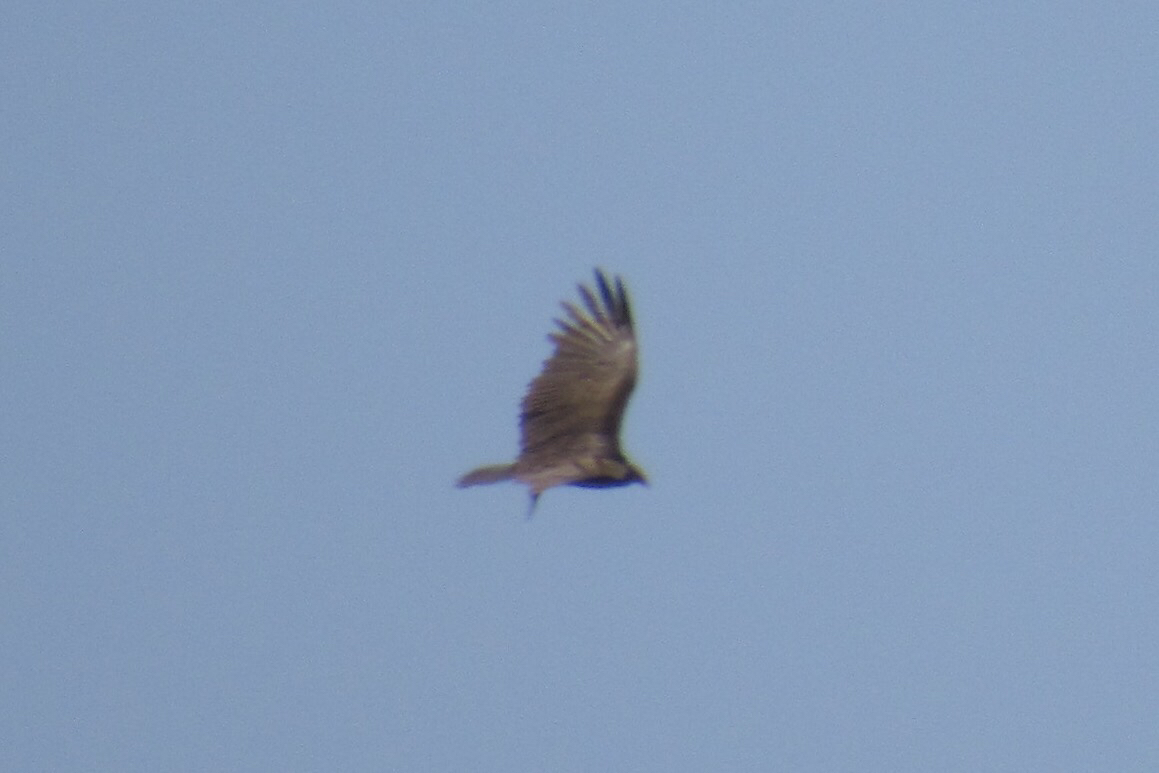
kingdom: Animalia
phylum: Chordata
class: Aves
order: Accipitriformes
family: Cathartidae
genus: Cathartes
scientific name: Cathartes aura
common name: Turkey vulture
